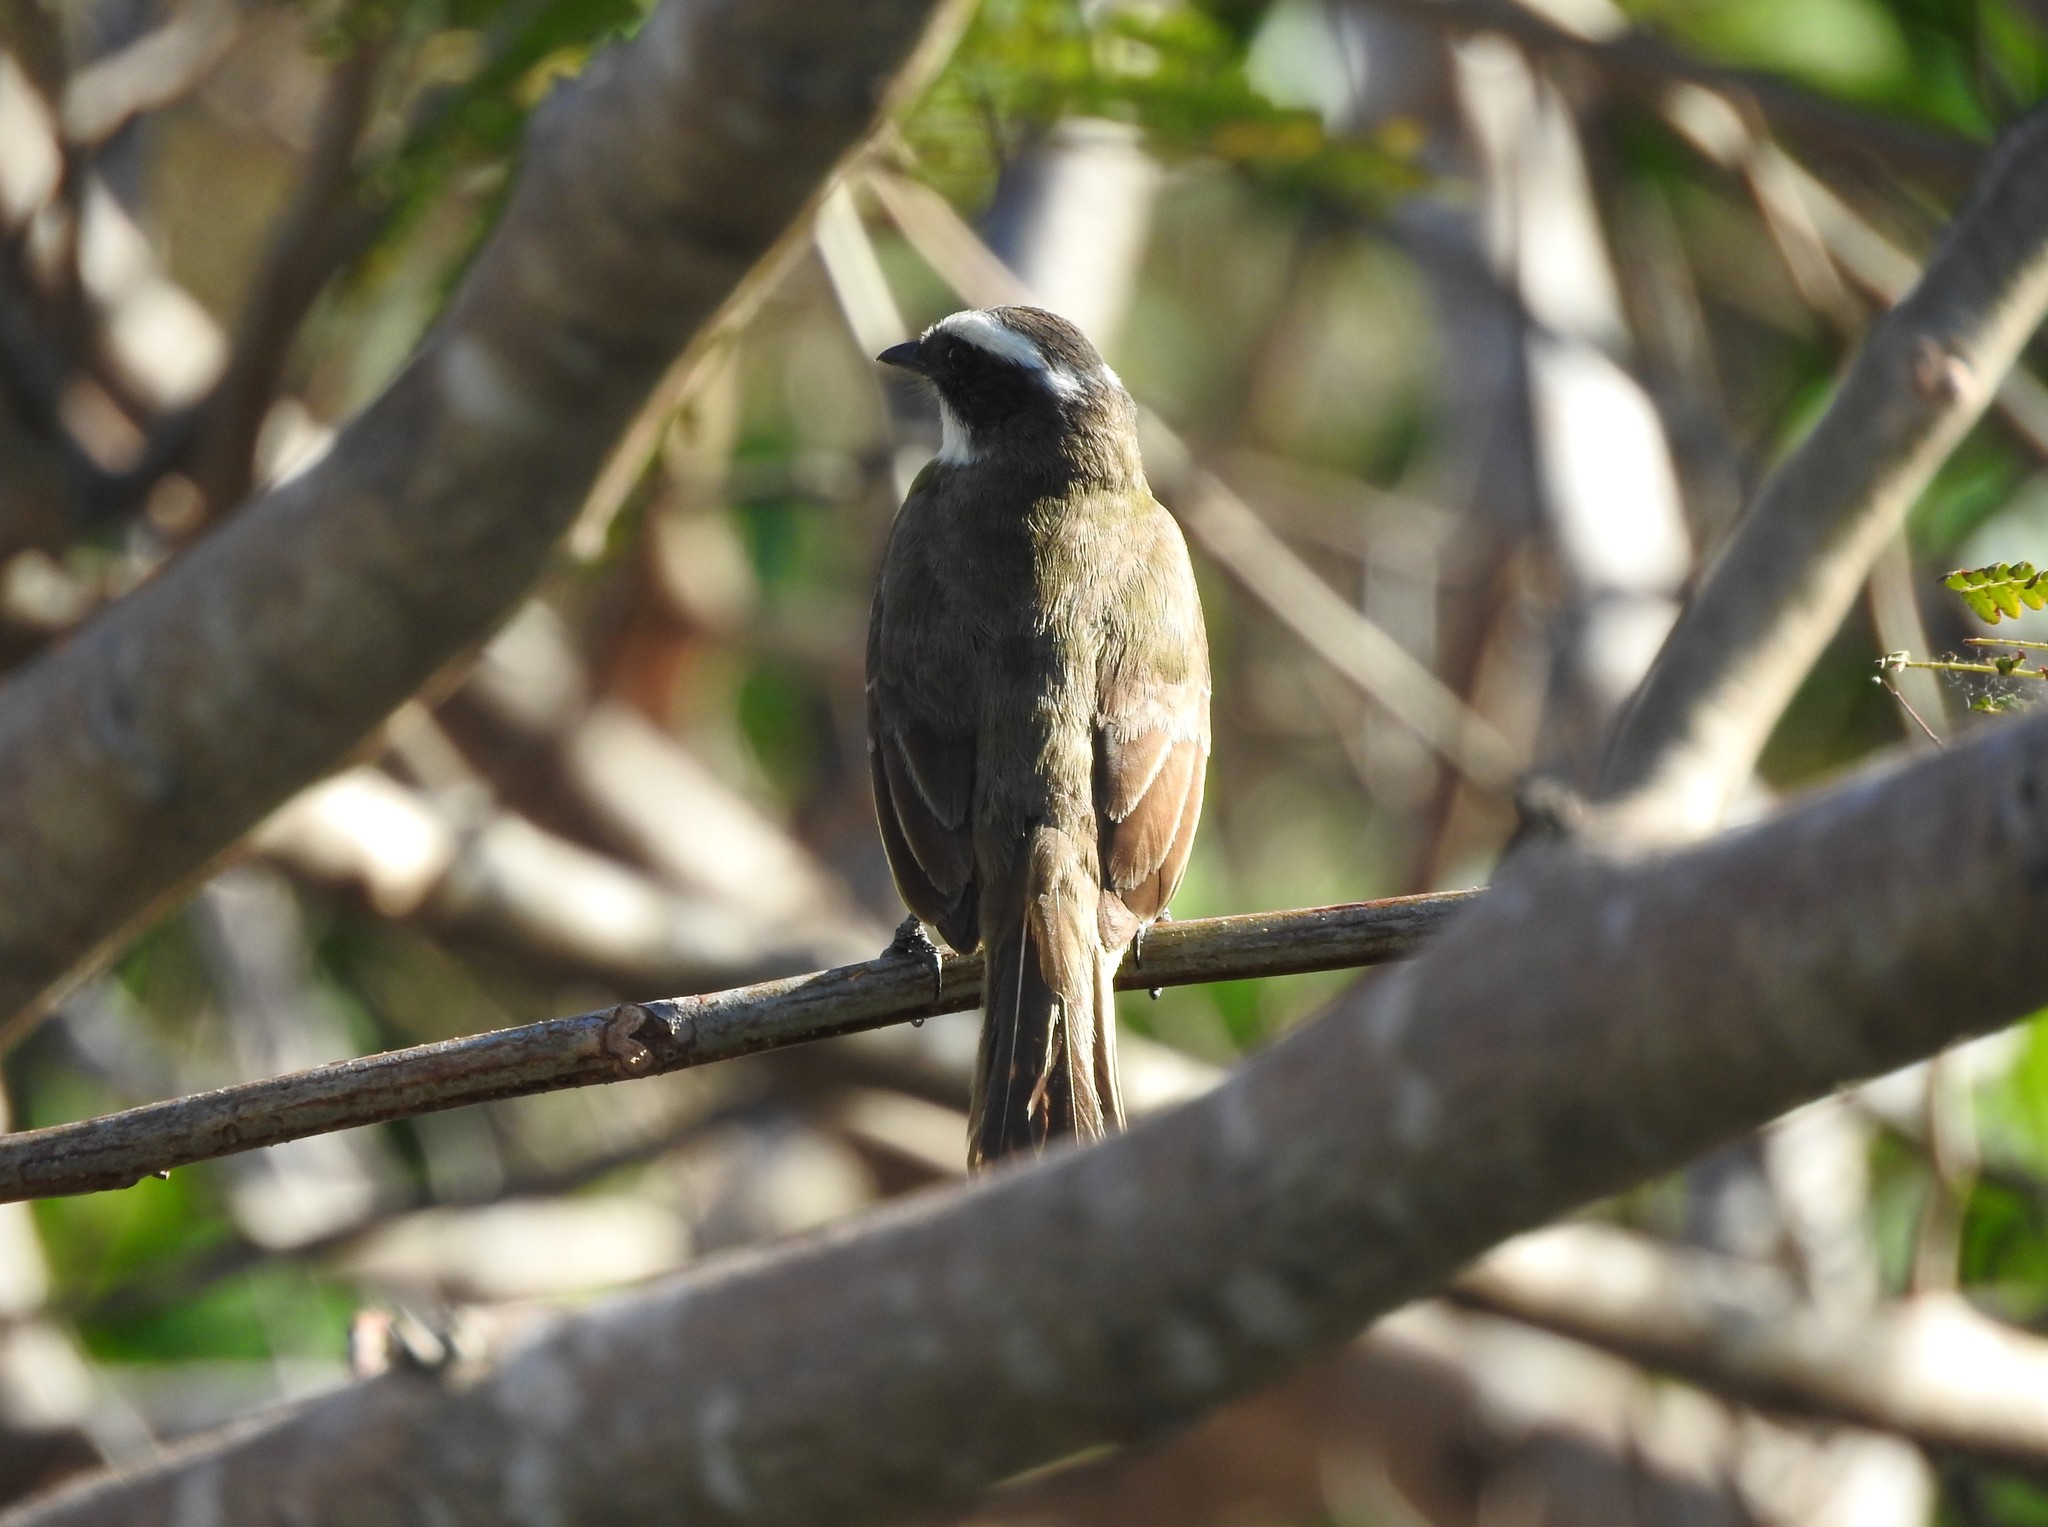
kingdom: Animalia
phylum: Chordata
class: Aves
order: Passeriformes
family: Tyrannidae
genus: Myiozetetes
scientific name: Myiozetetes similis
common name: Social flycatcher
